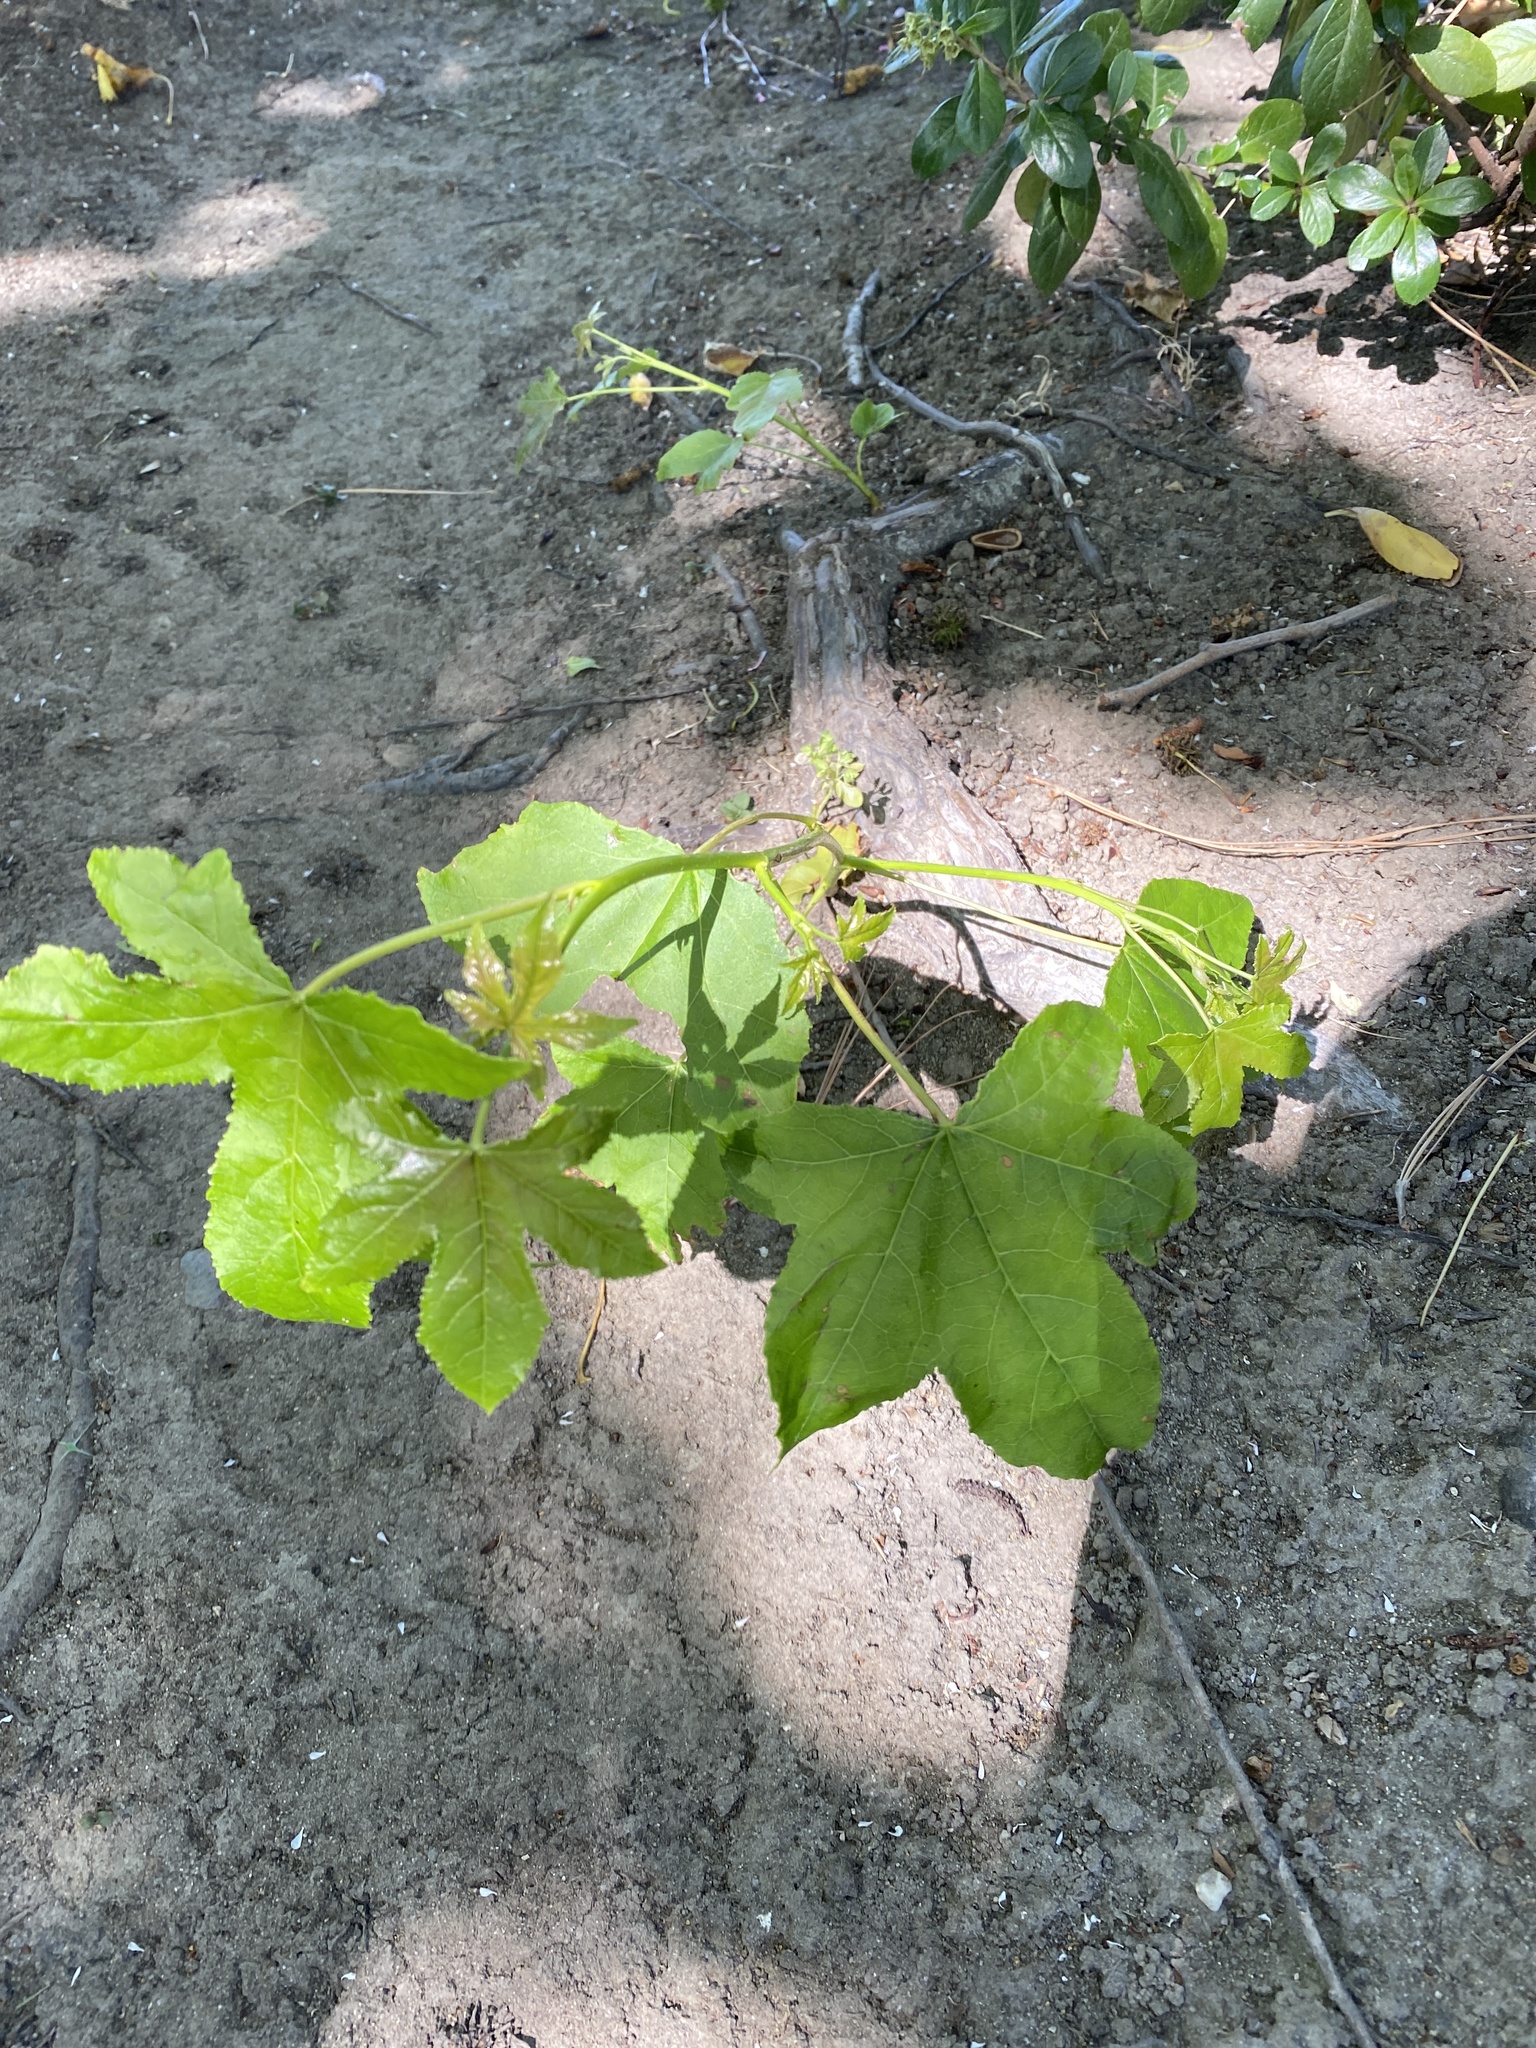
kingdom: Plantae
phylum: Tracheophyta
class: Magnoliopsida
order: Saxifragales
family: Altingiaceae
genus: Liquidambar
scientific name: Liquidambar styraciflua
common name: Sweet gum
